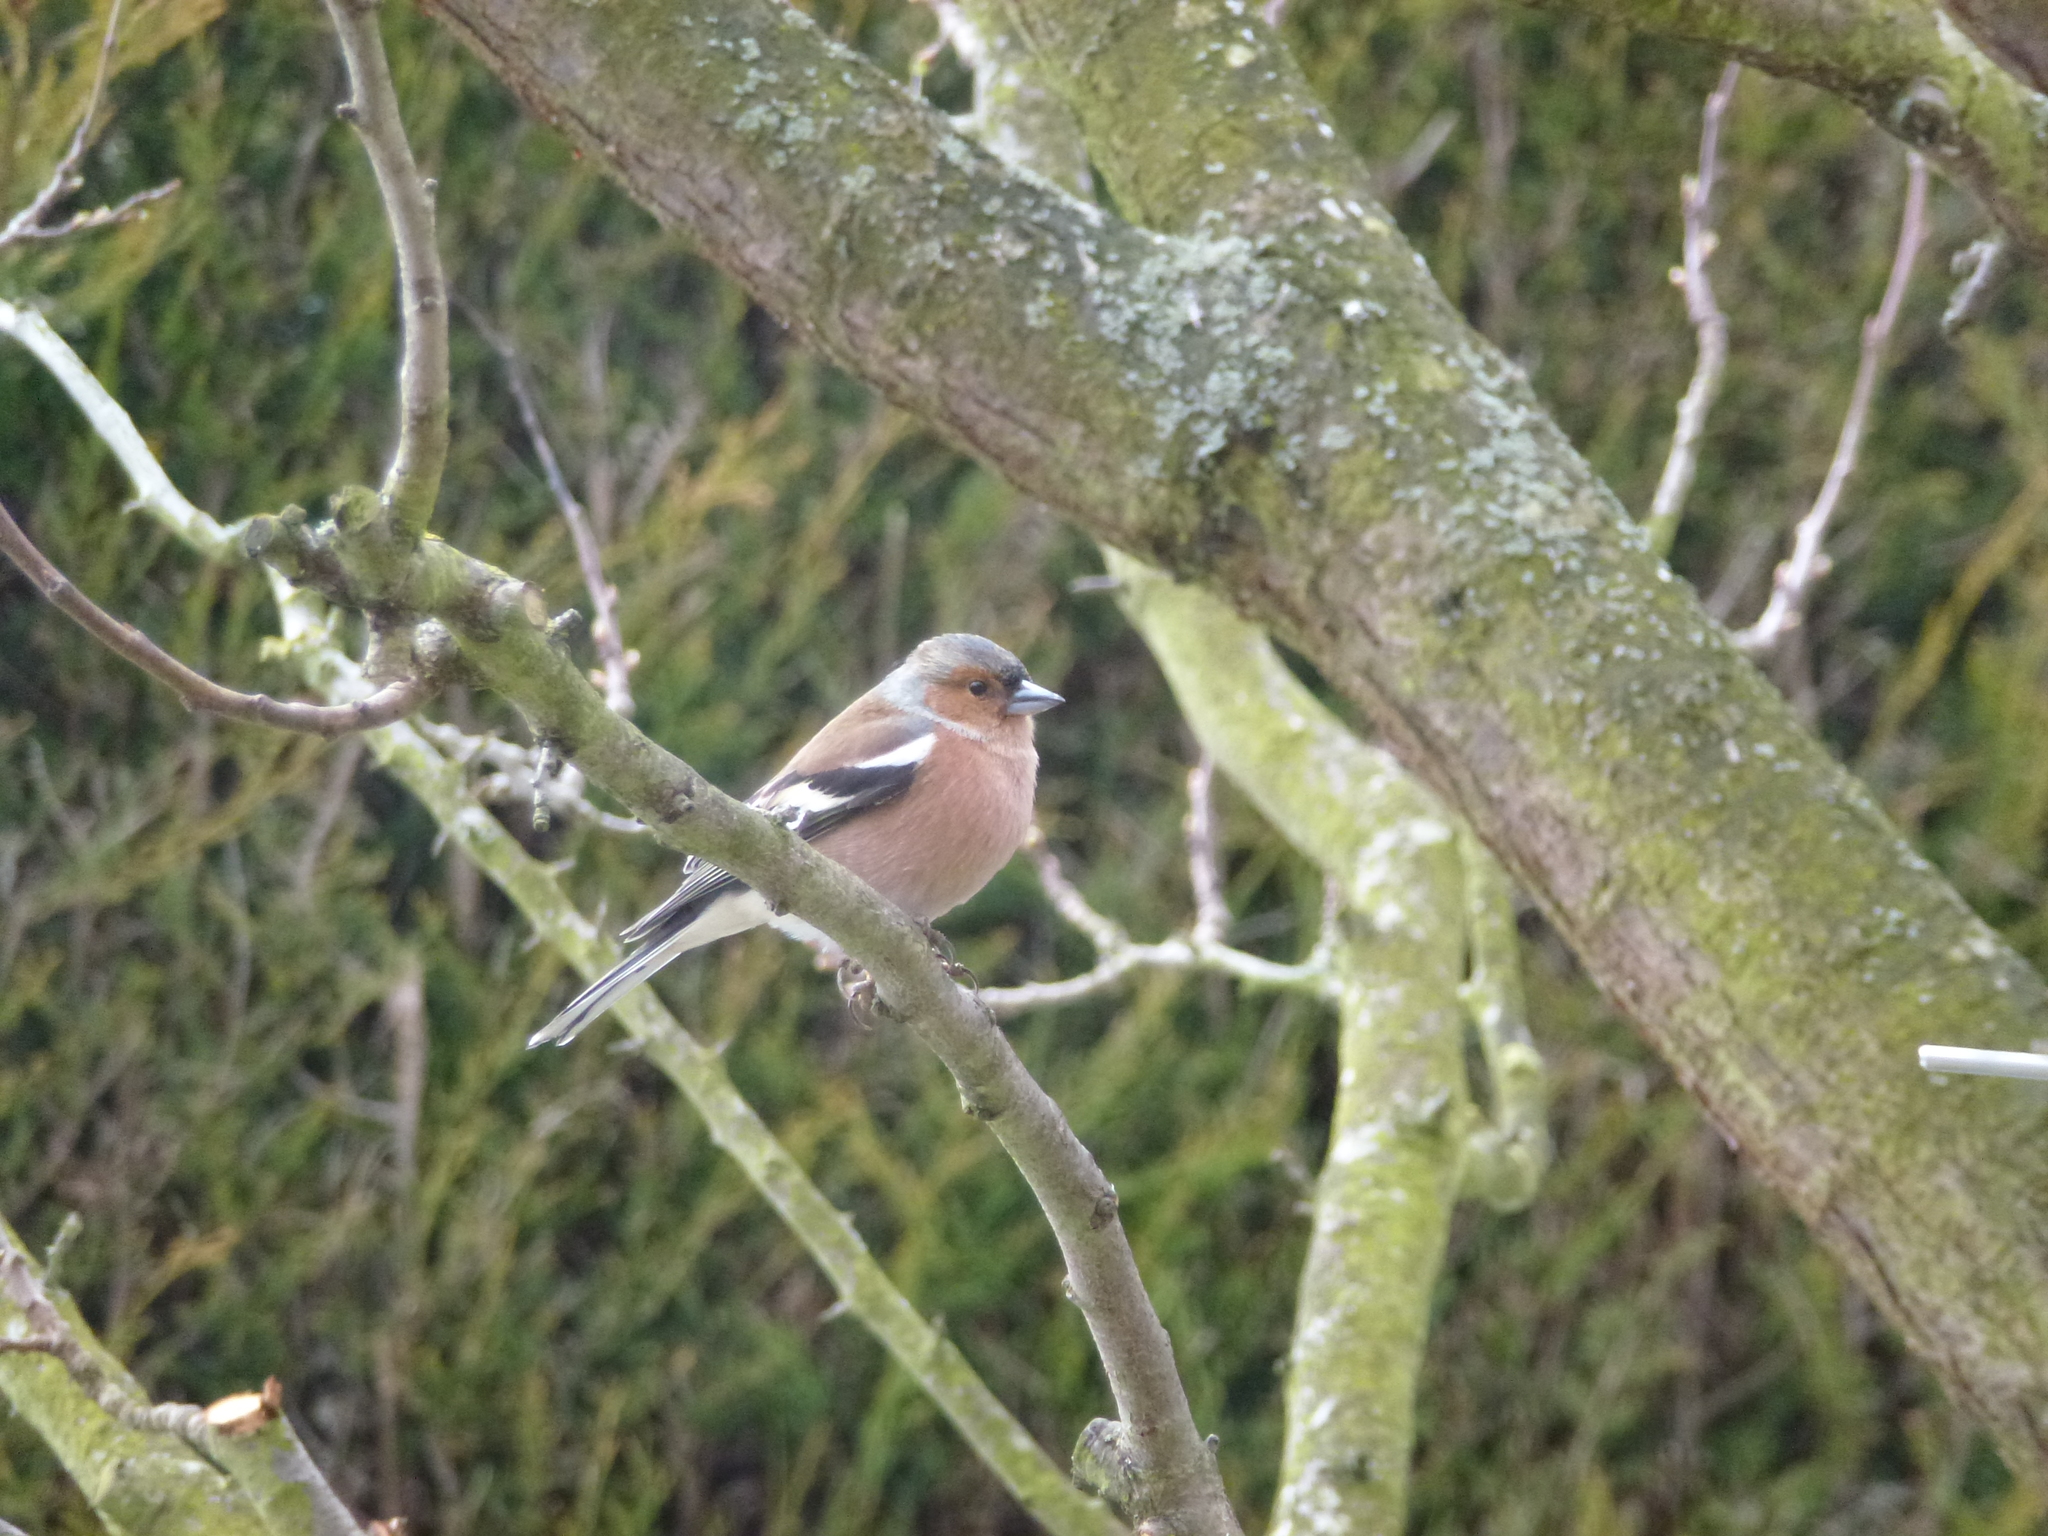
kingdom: Animalia
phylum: Chordata
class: Aves
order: Passeriformes
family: Fringillidae
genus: Fringilla
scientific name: Fringilla coelebs
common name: Common chaffinch
